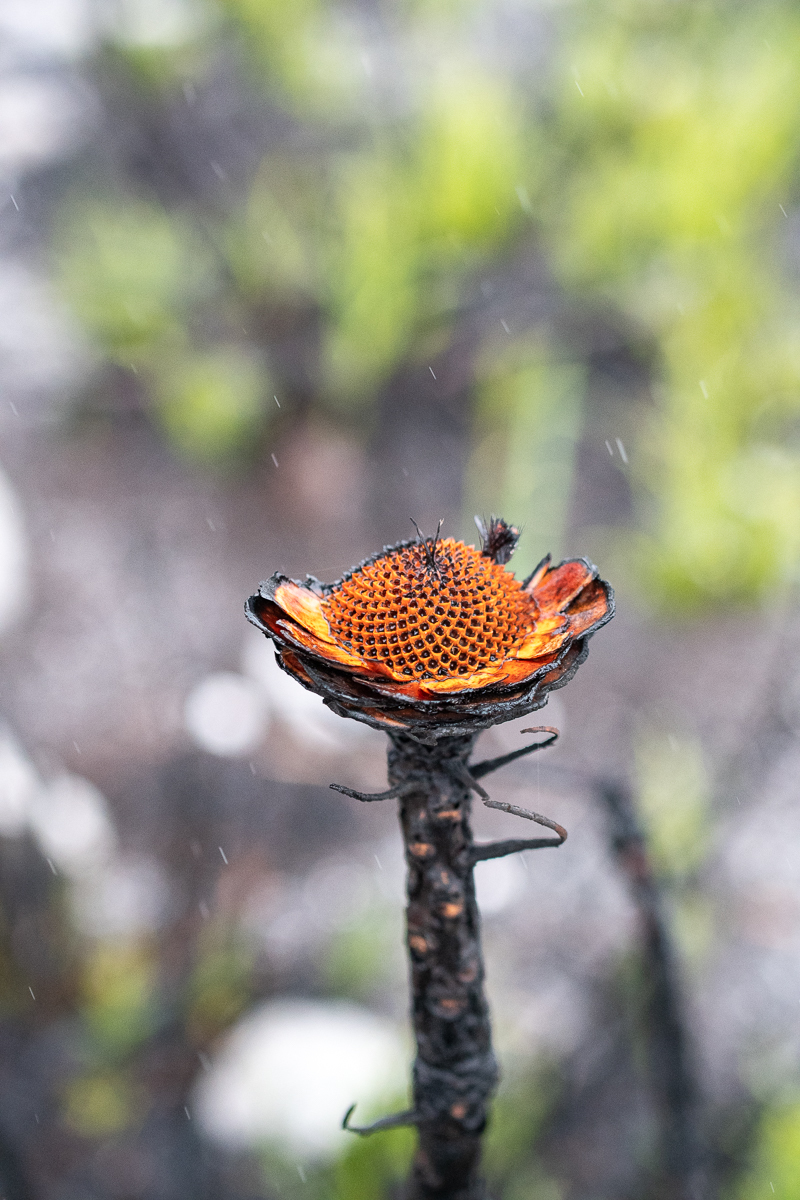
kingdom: Plantae
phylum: Tracheophyta
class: Magnoliopsida
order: Proteales
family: Proteaceae
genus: Protea
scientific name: Protea cynaroides
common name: King protea
